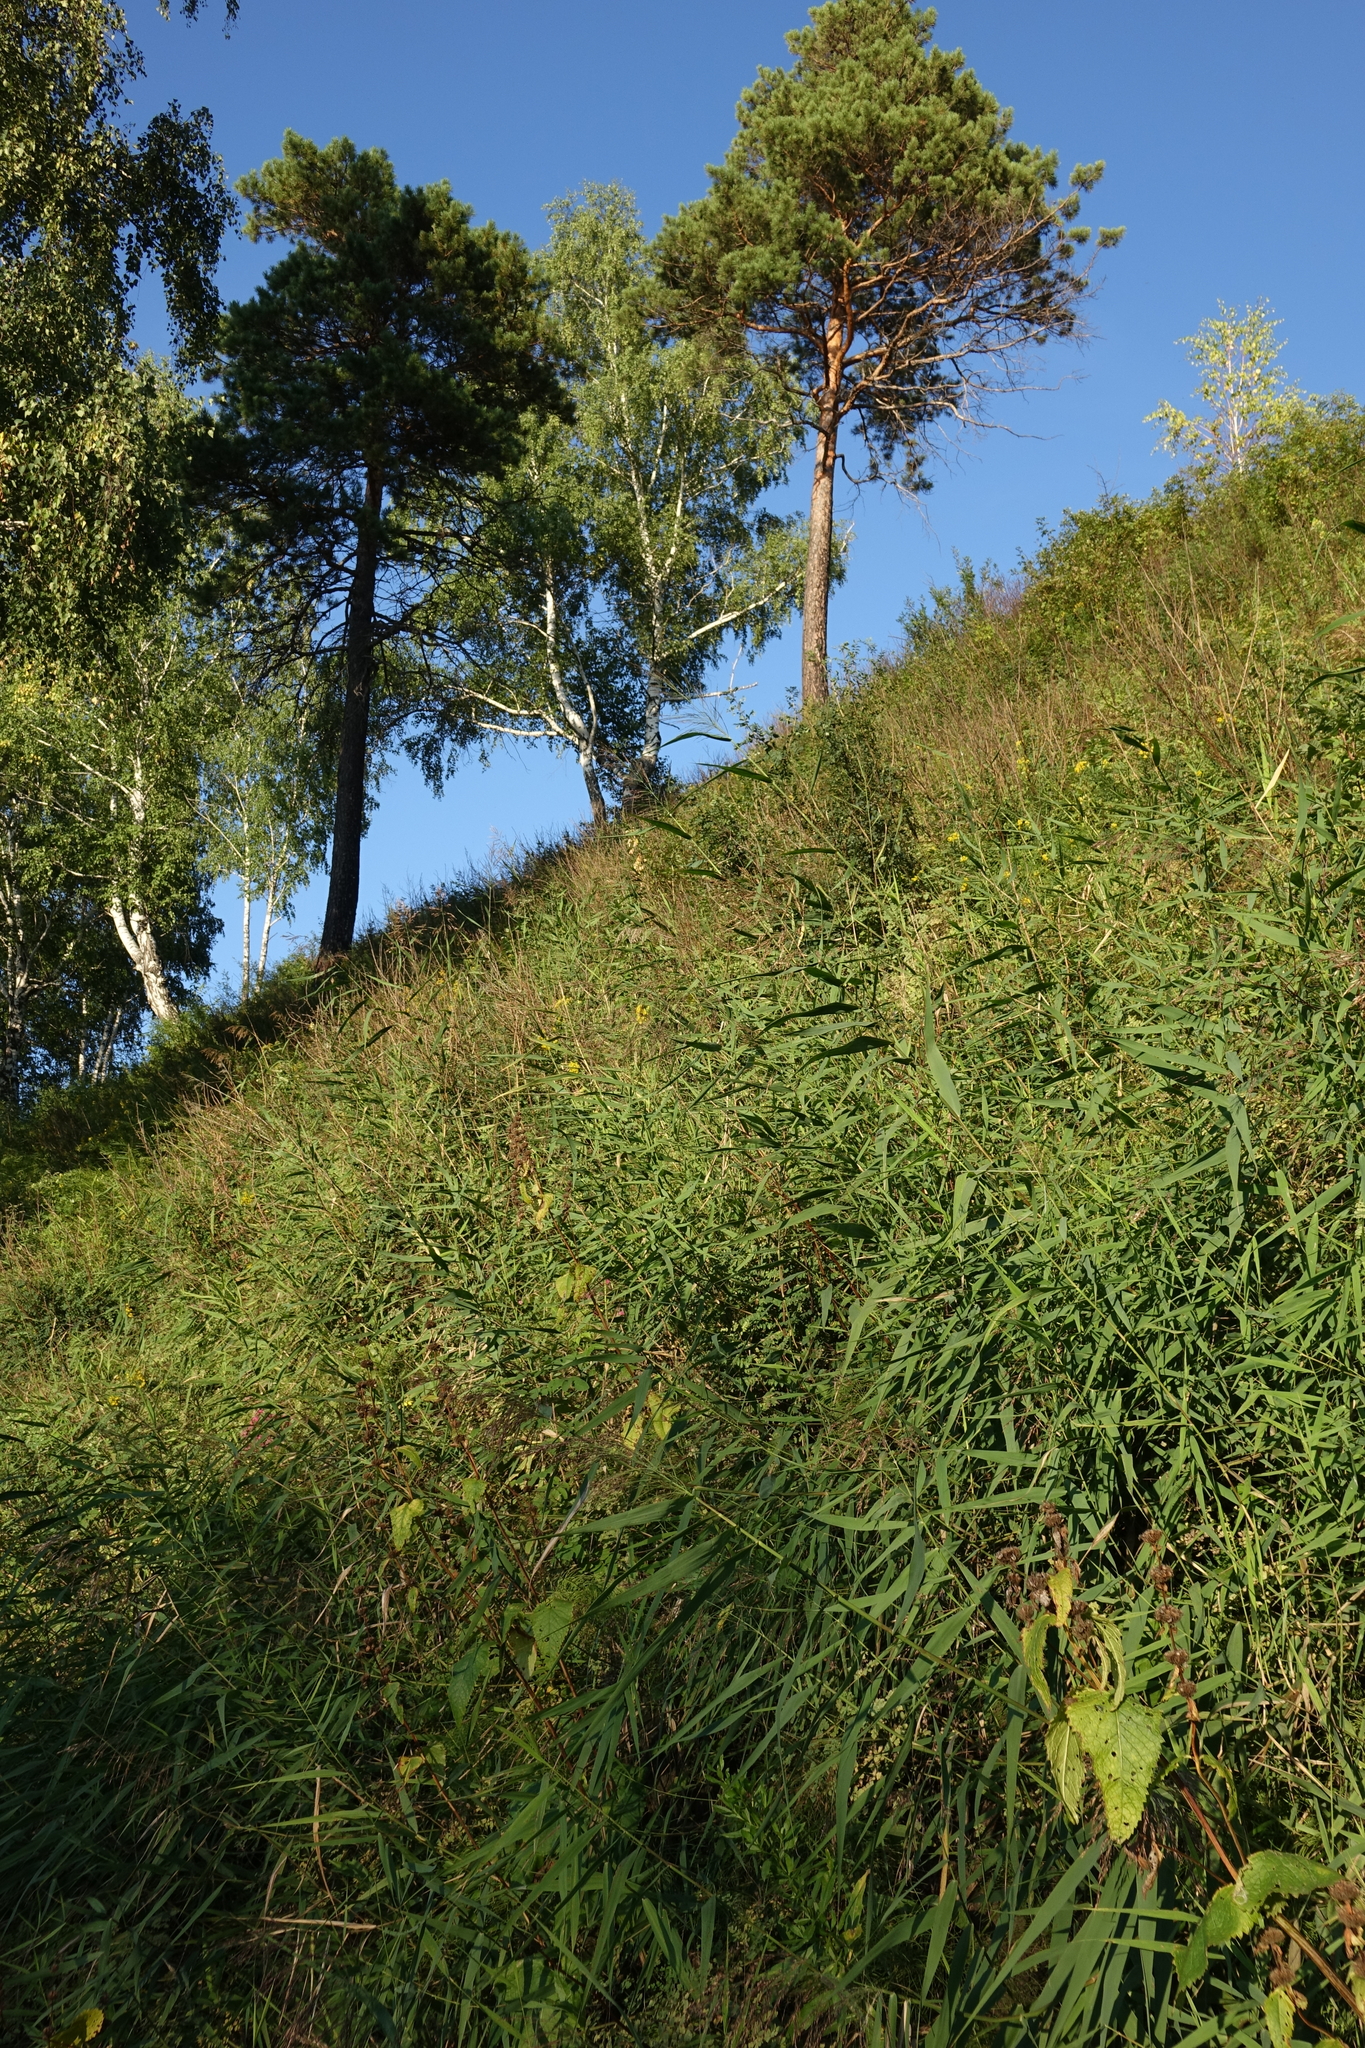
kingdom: Plantae
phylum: Tracheophyta
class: Pinopsida
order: Pinales
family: Pinaceae
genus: Pinus
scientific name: Pinus sylvestris
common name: Scots pine
